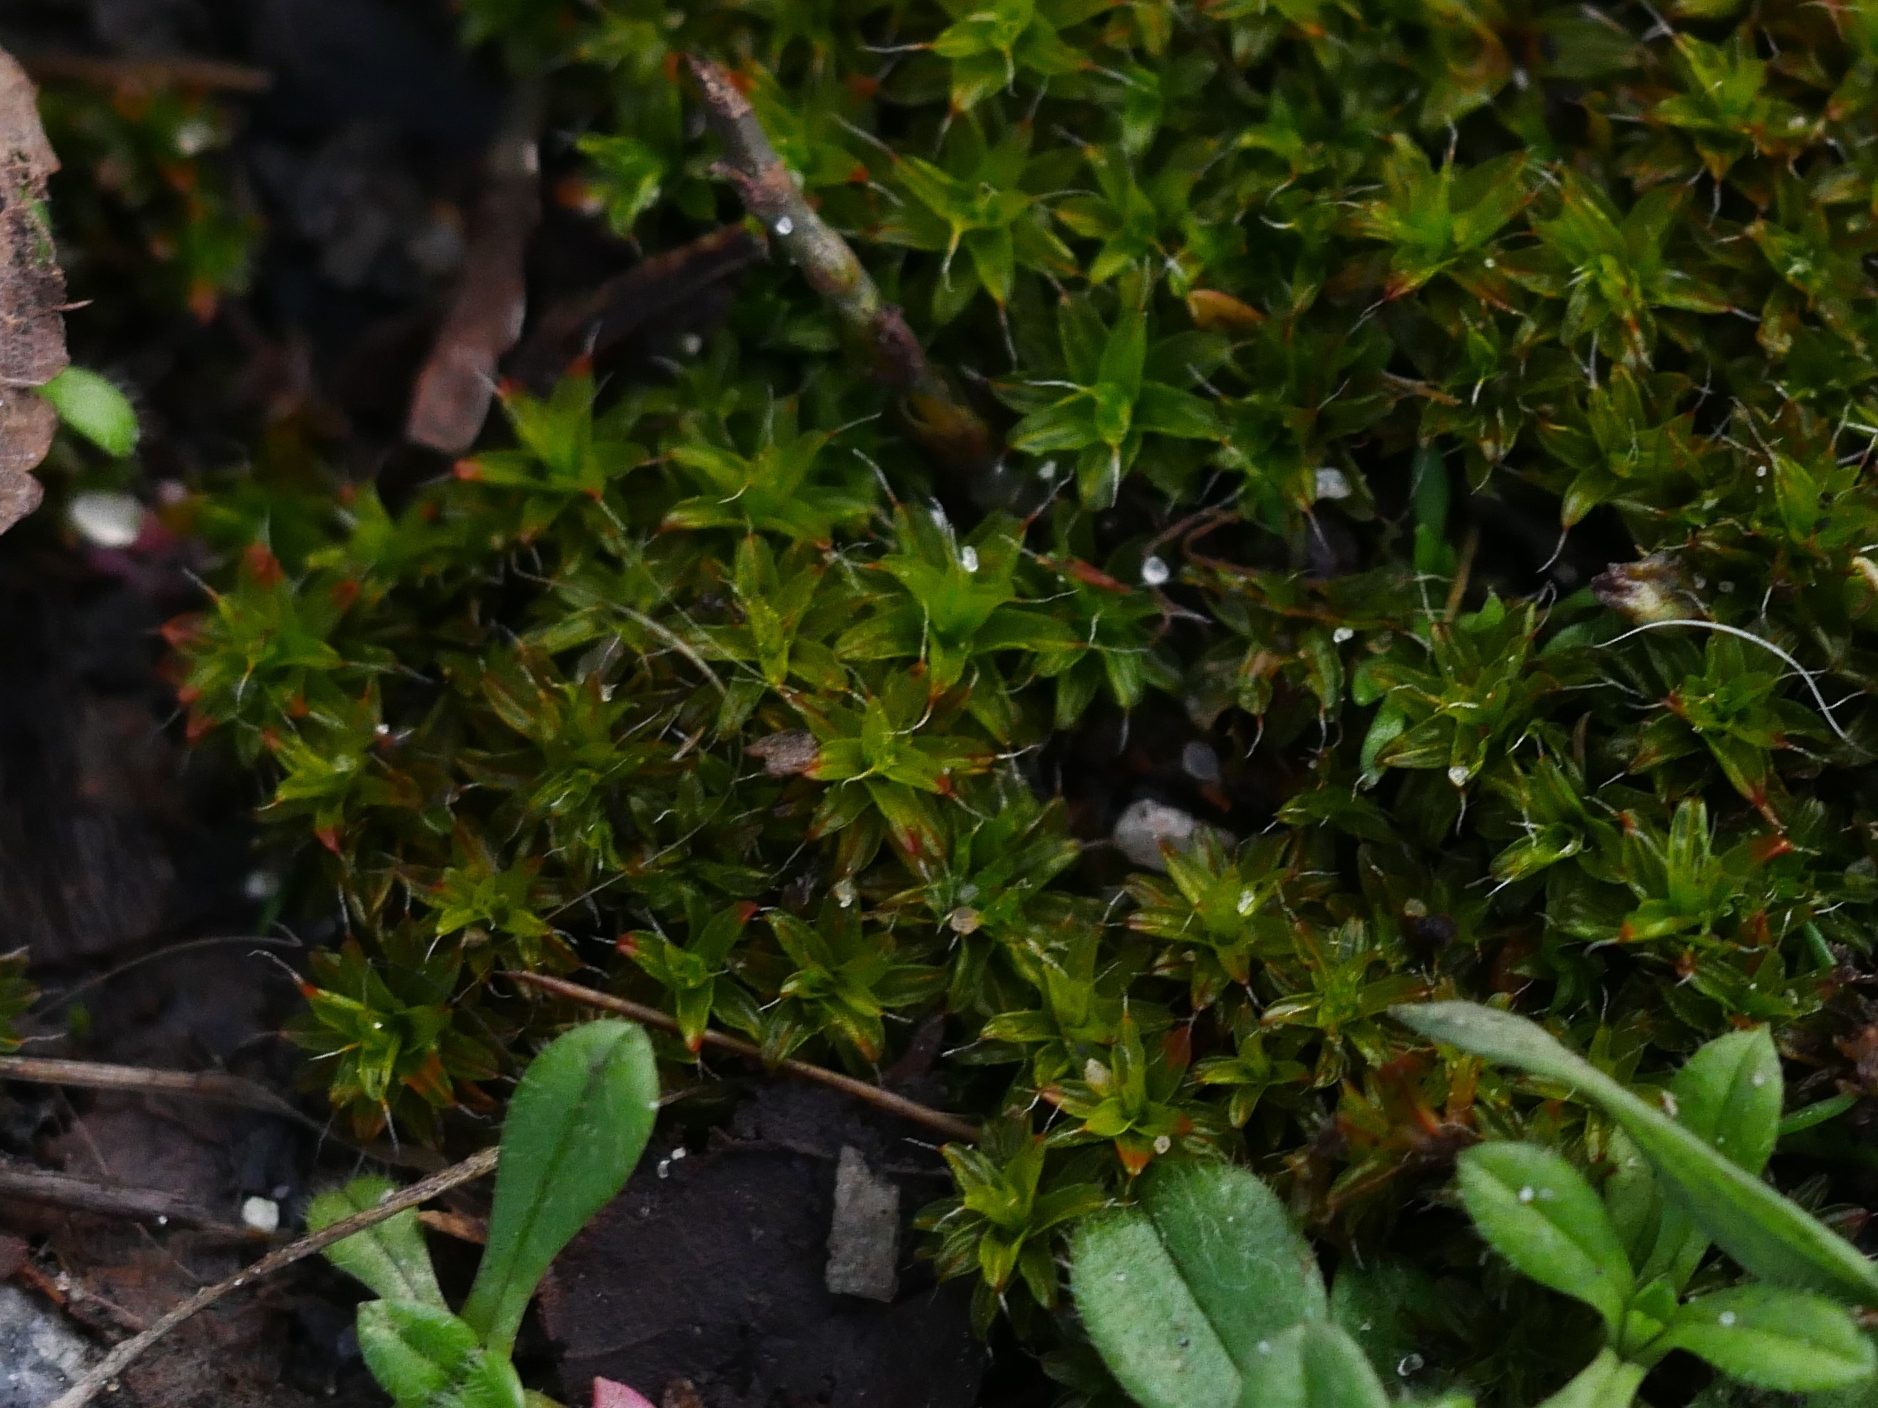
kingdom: Plantae
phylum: Bryophyta
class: Bryopsida
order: Pottiales
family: Pottiaceae
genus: Syntrichia
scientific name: Syntrichia ruralis
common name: Sidewalk screw moss
